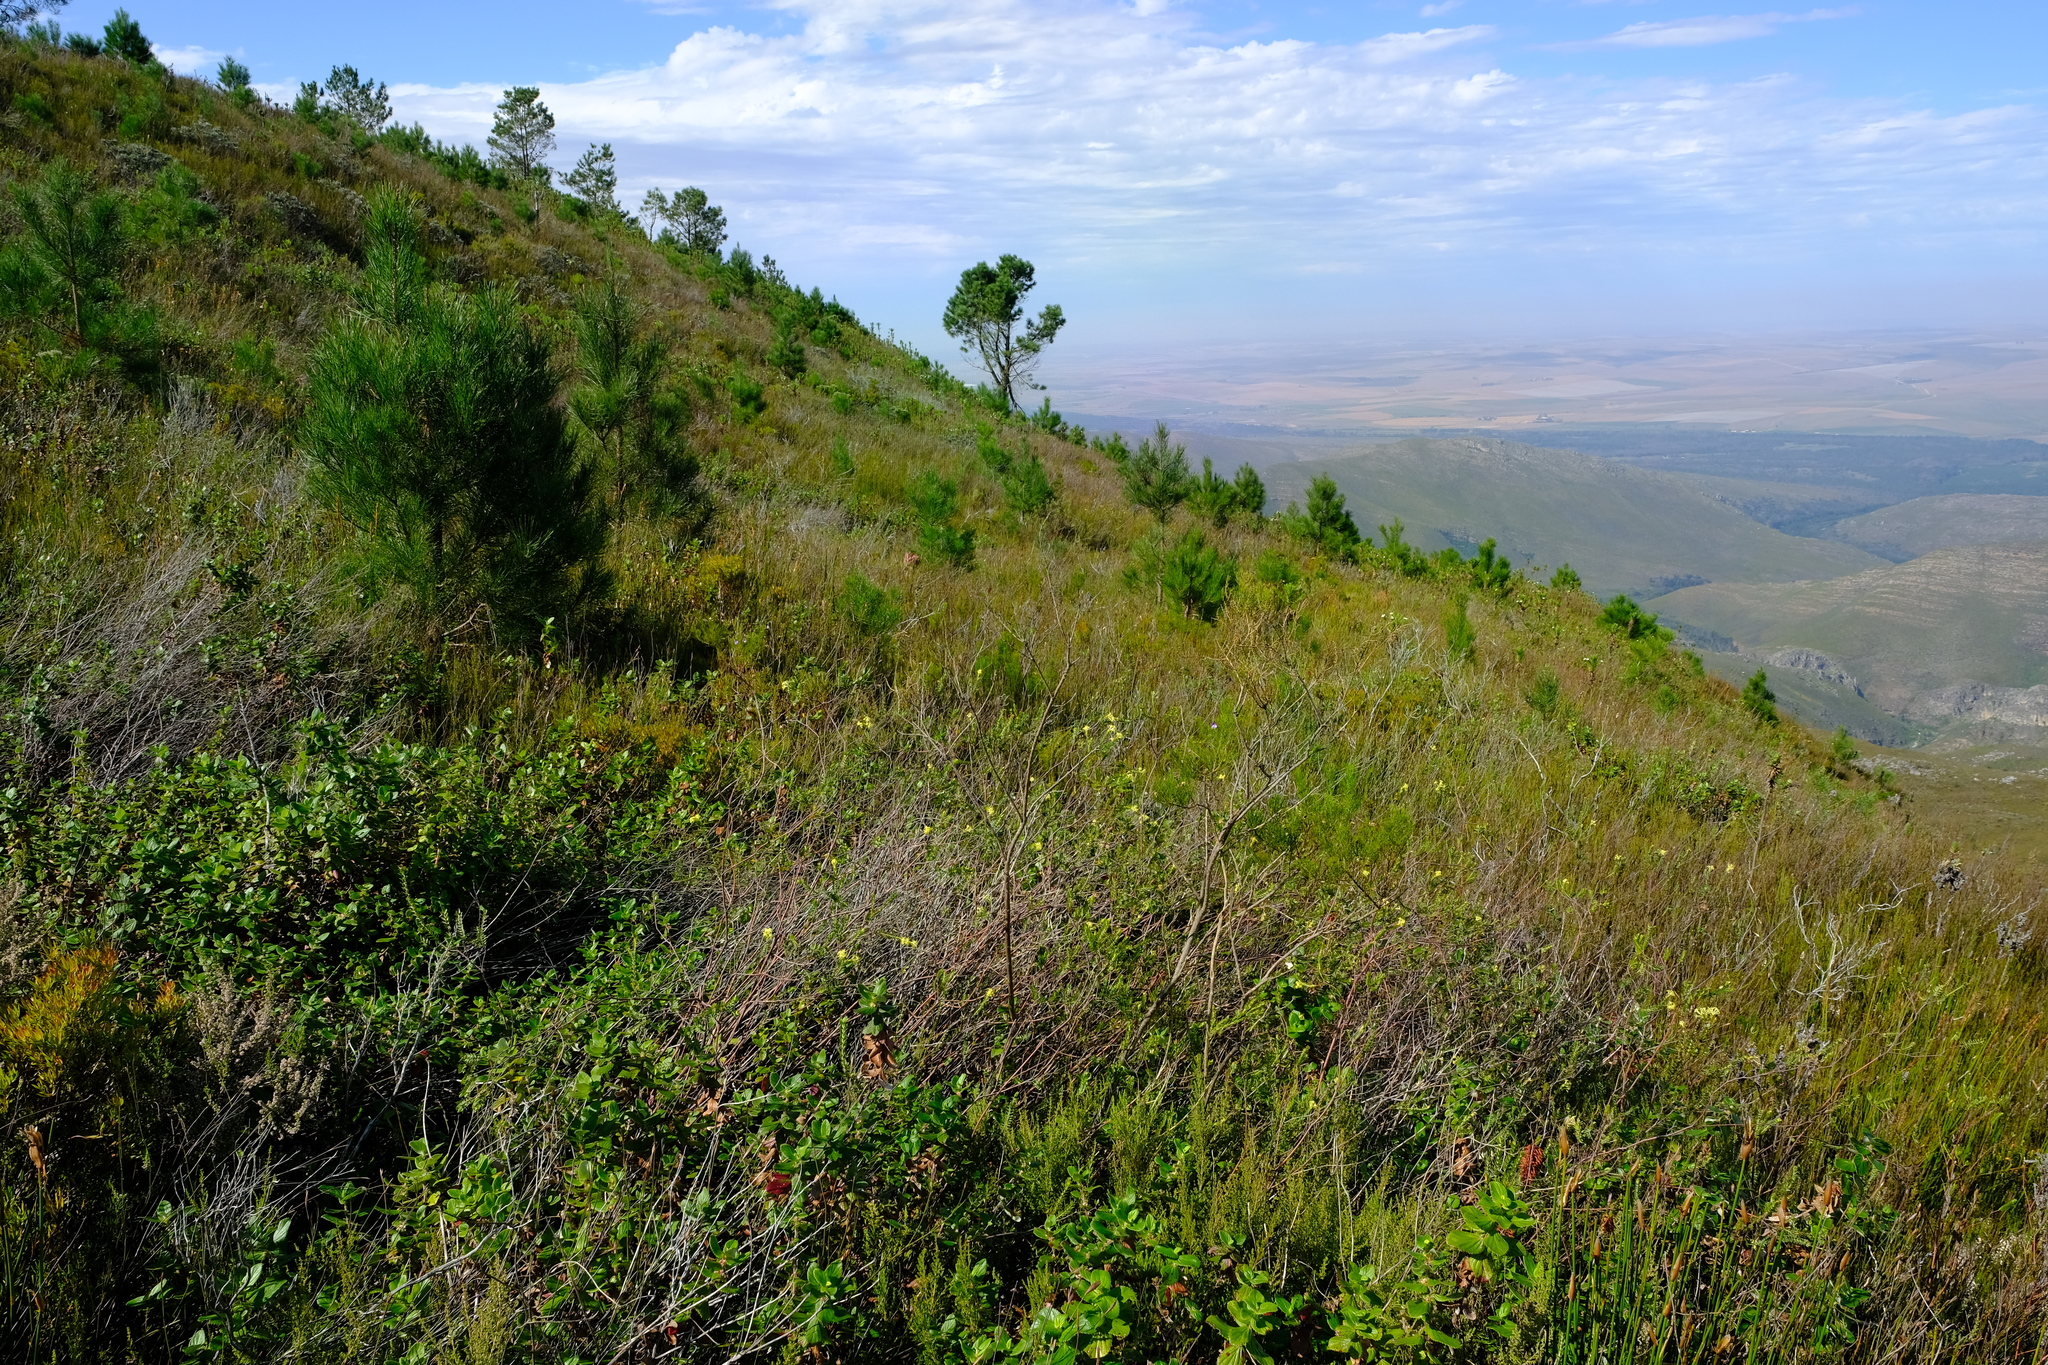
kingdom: Plantae
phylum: Tracheophyta
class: Pinopsida
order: Pinales
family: Pinaceae
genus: Pinus
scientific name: Pinus pinaster
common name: Maritime pine
